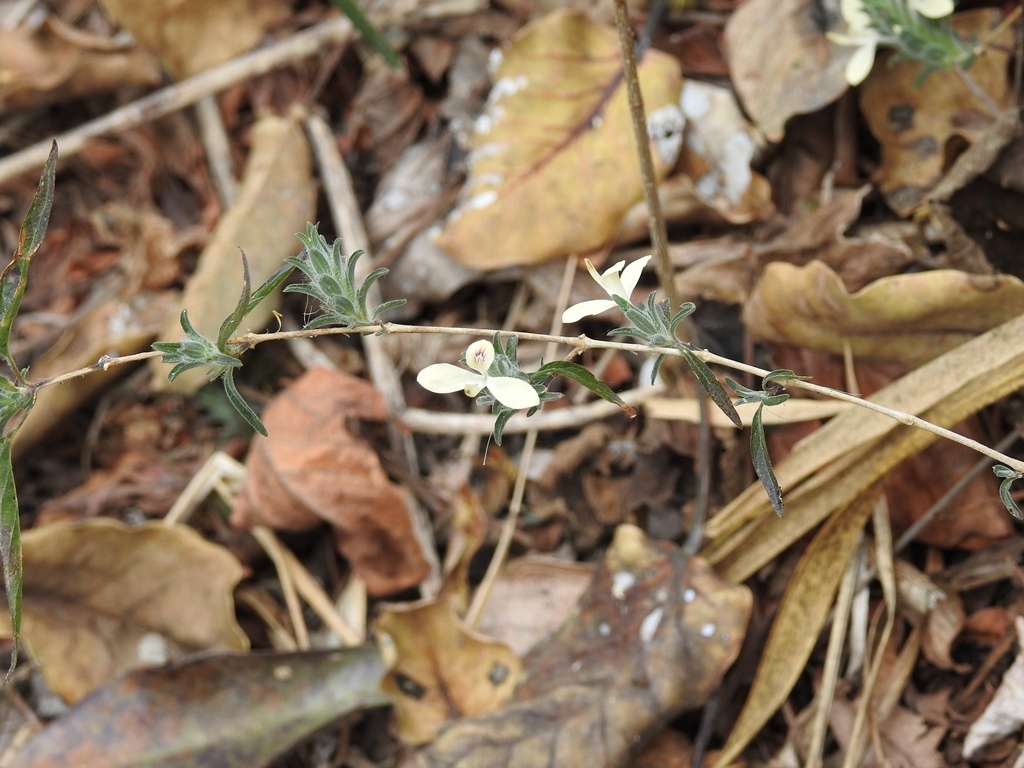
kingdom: Plantae
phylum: Tracheophyta
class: Magnoliopsida
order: Lamiales
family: Acanthaceae
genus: Tetramerium
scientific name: Tetramerium nervosum
